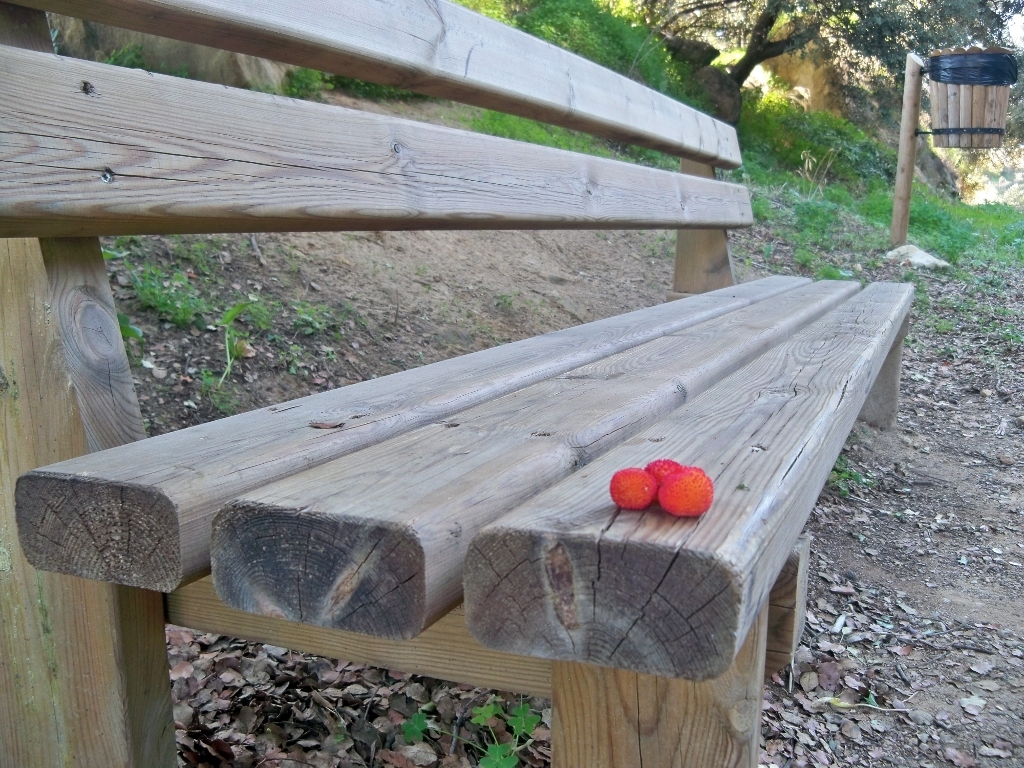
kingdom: Plantae
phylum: Tracheophyta
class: Magnoliopsida
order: Ericales
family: Ericaceae
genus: Arbutus
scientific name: Arbutus unedo
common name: Strawberry-tree
